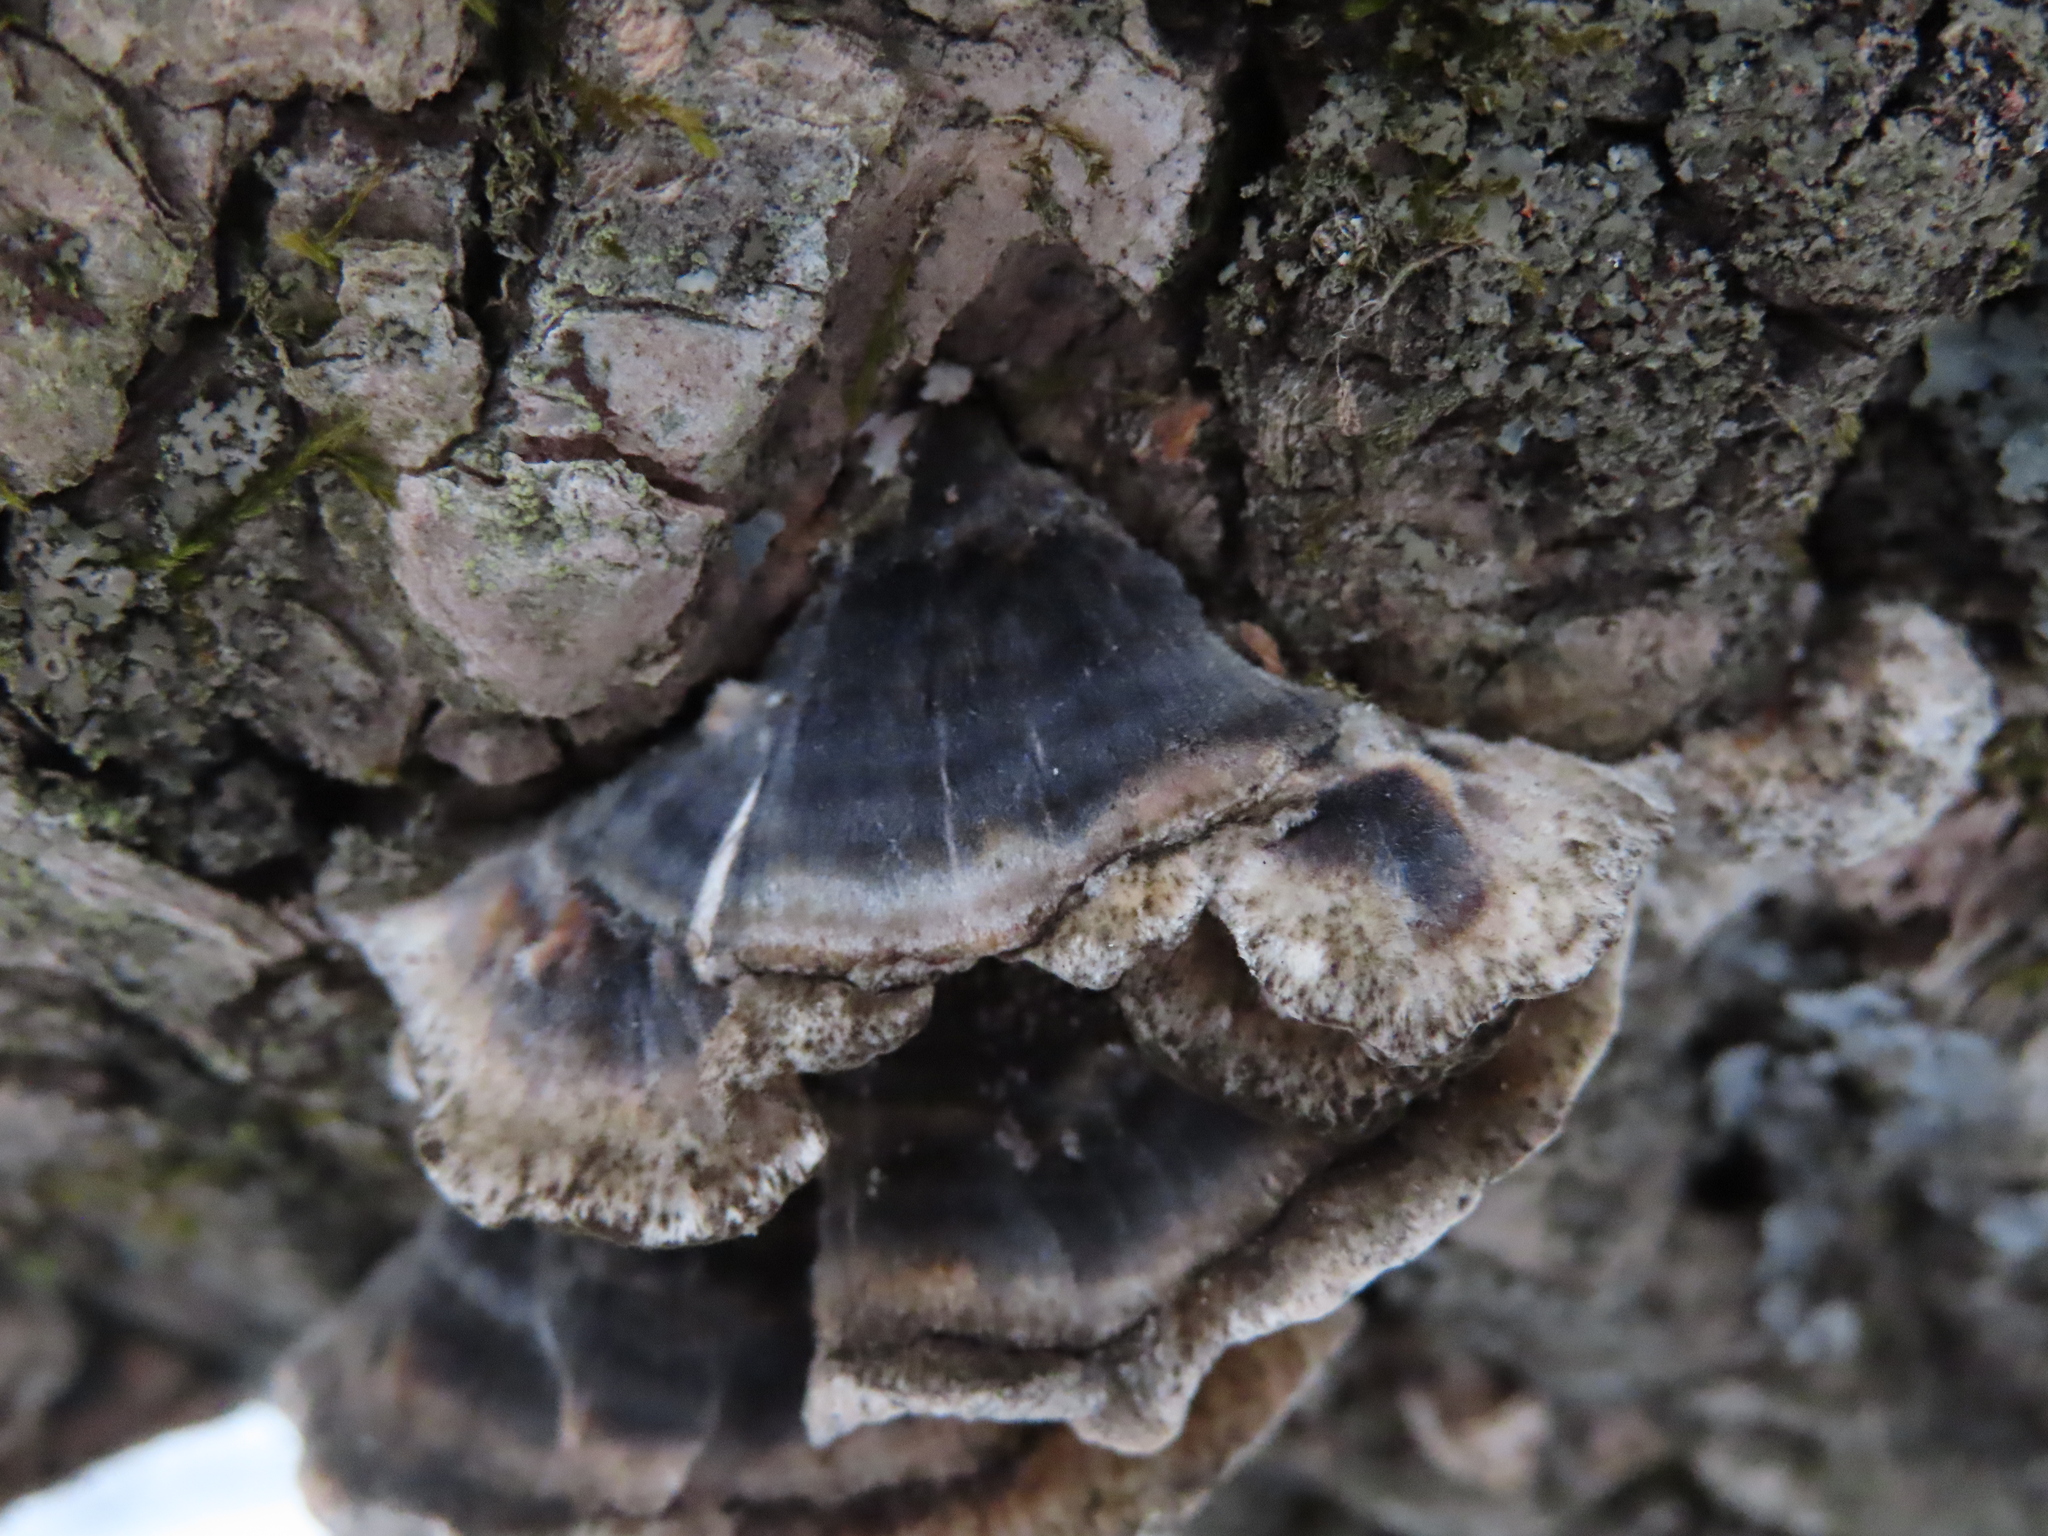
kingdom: Fungi
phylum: Basidiomycota
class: Agaricomycetes
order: Polyporales
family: Polyporaceae
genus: Trametes
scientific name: Trametes versicolor
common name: Turkeytail
